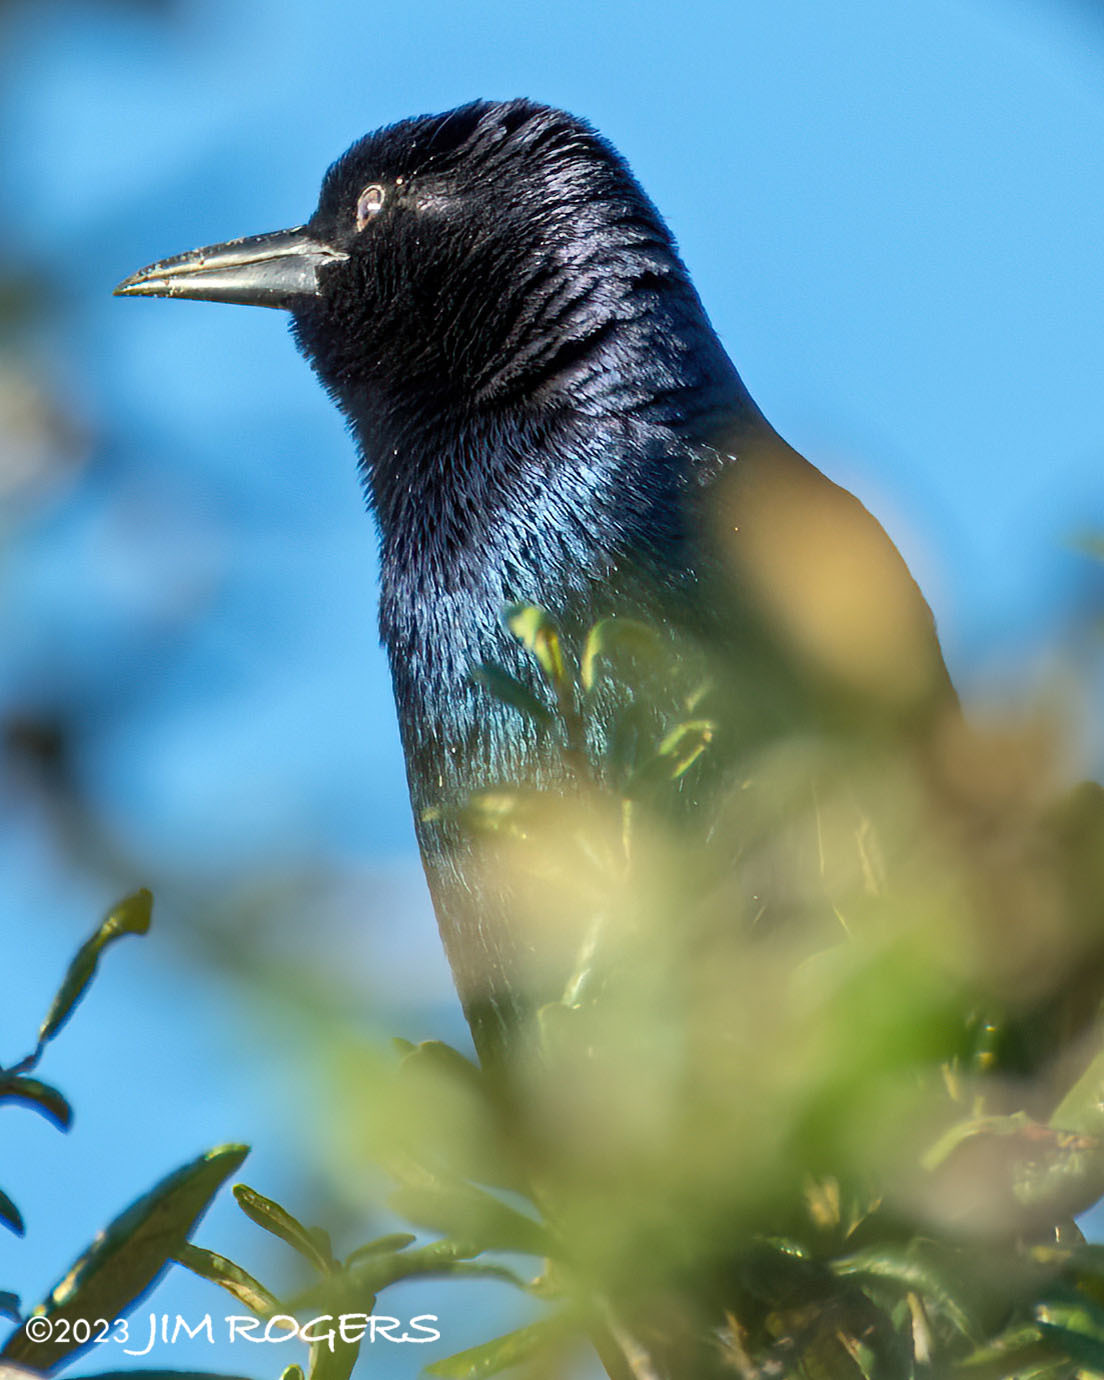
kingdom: Animalia
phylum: Chordata
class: Aves
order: Passeriformes
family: Icteridae
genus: Quiscalus
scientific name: Quiscalus quiscula
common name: Common grackle
